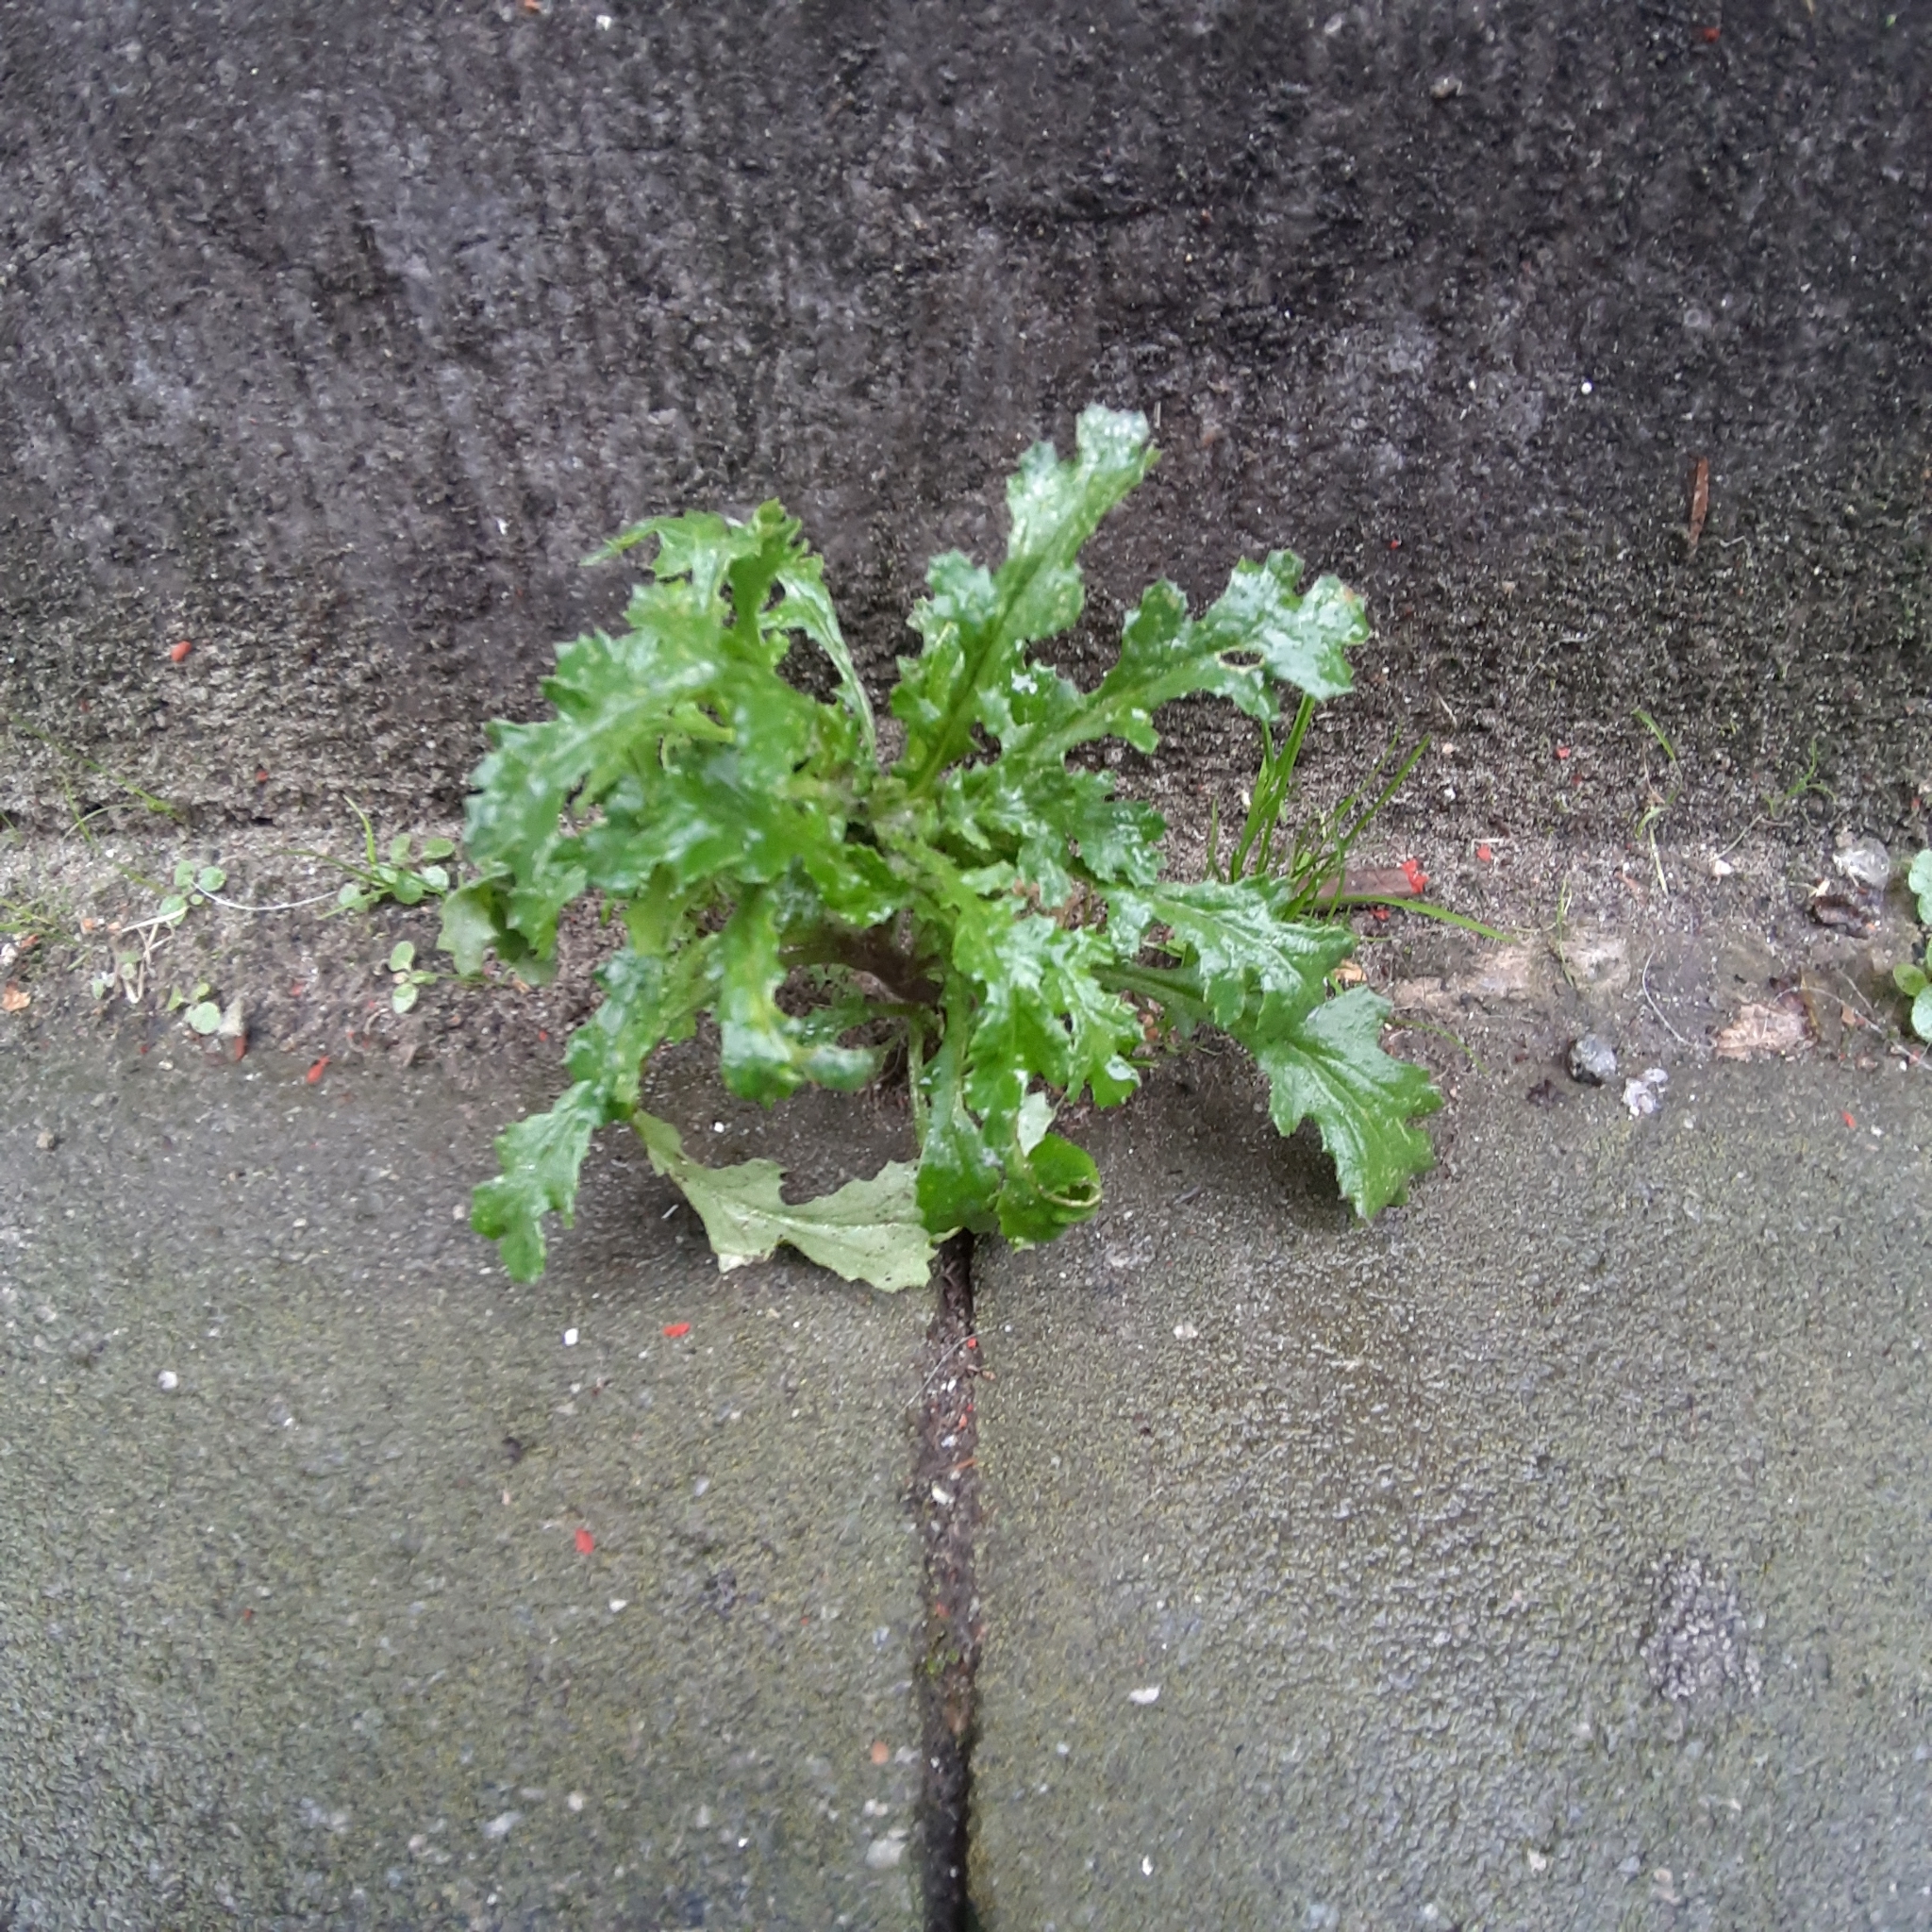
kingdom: Plantae
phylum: Tracheophyta
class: Magnoliopsida
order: Asterales
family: Asteraceae
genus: Senecio
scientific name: Senecio vulgaris
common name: Old-man-in-the-spring
